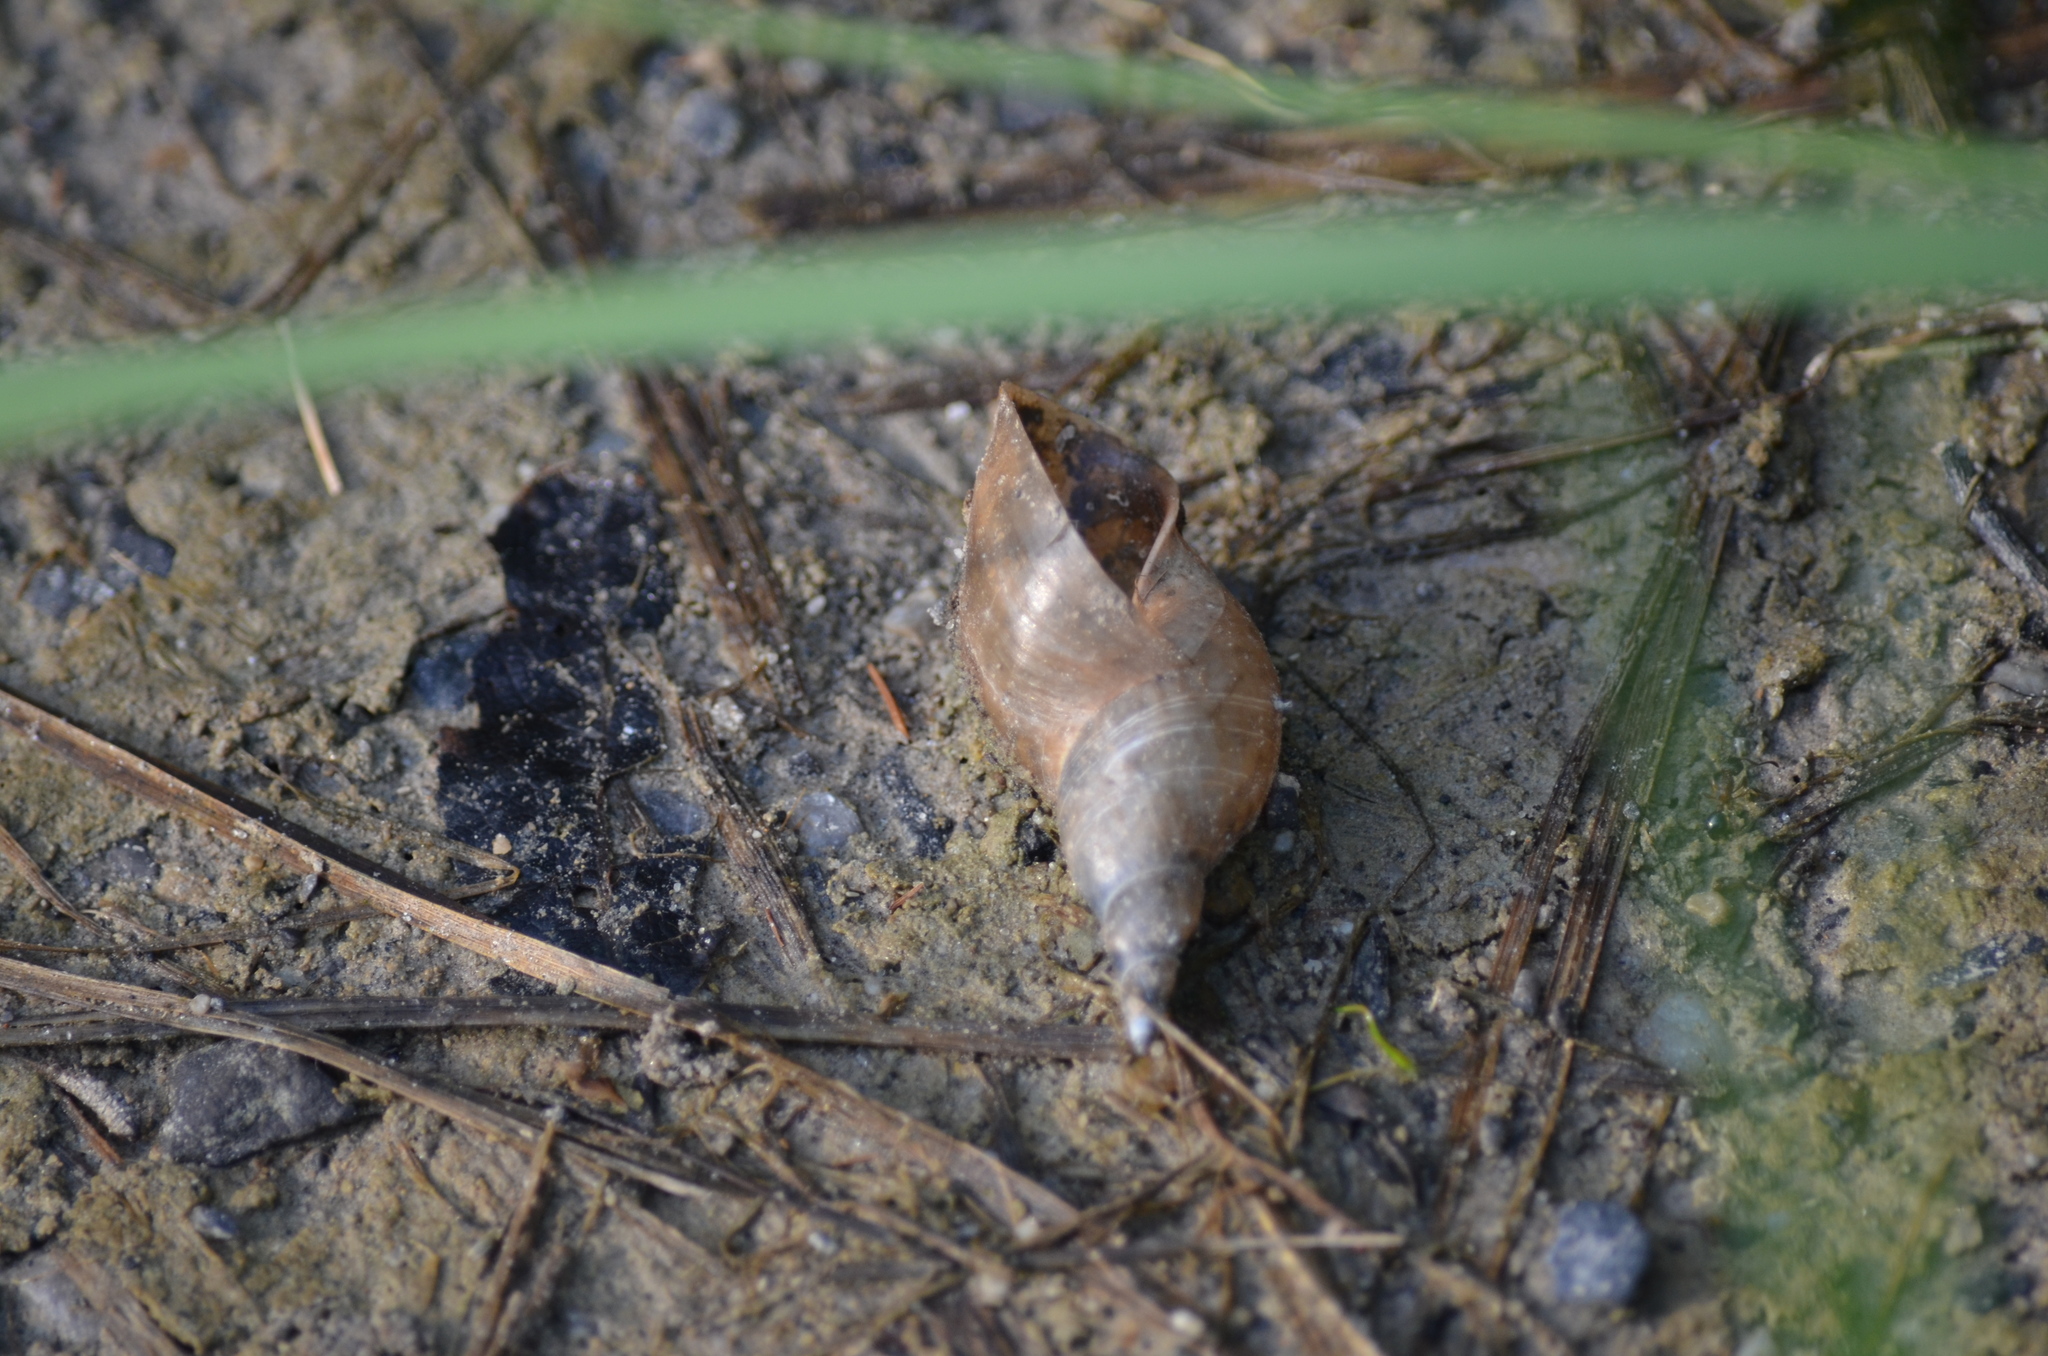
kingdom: Animalia
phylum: Mollusca
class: Gastropoda
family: Lymnaeidae
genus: Lymnaea
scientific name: Lymnaea stagnalis
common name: Great pond snail
